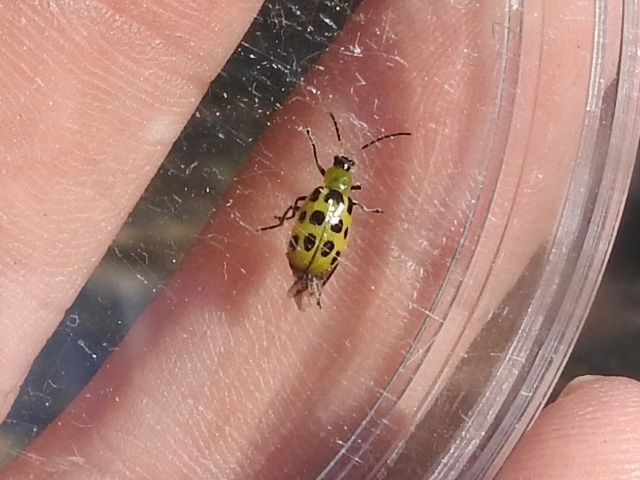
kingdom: Animalia
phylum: Arthropoda
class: Insecta
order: Coleoptera
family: Chrysomelidae
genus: Diabrotica
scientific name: Diabrotica undecimpunctata
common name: Spotted cucumber beetle
